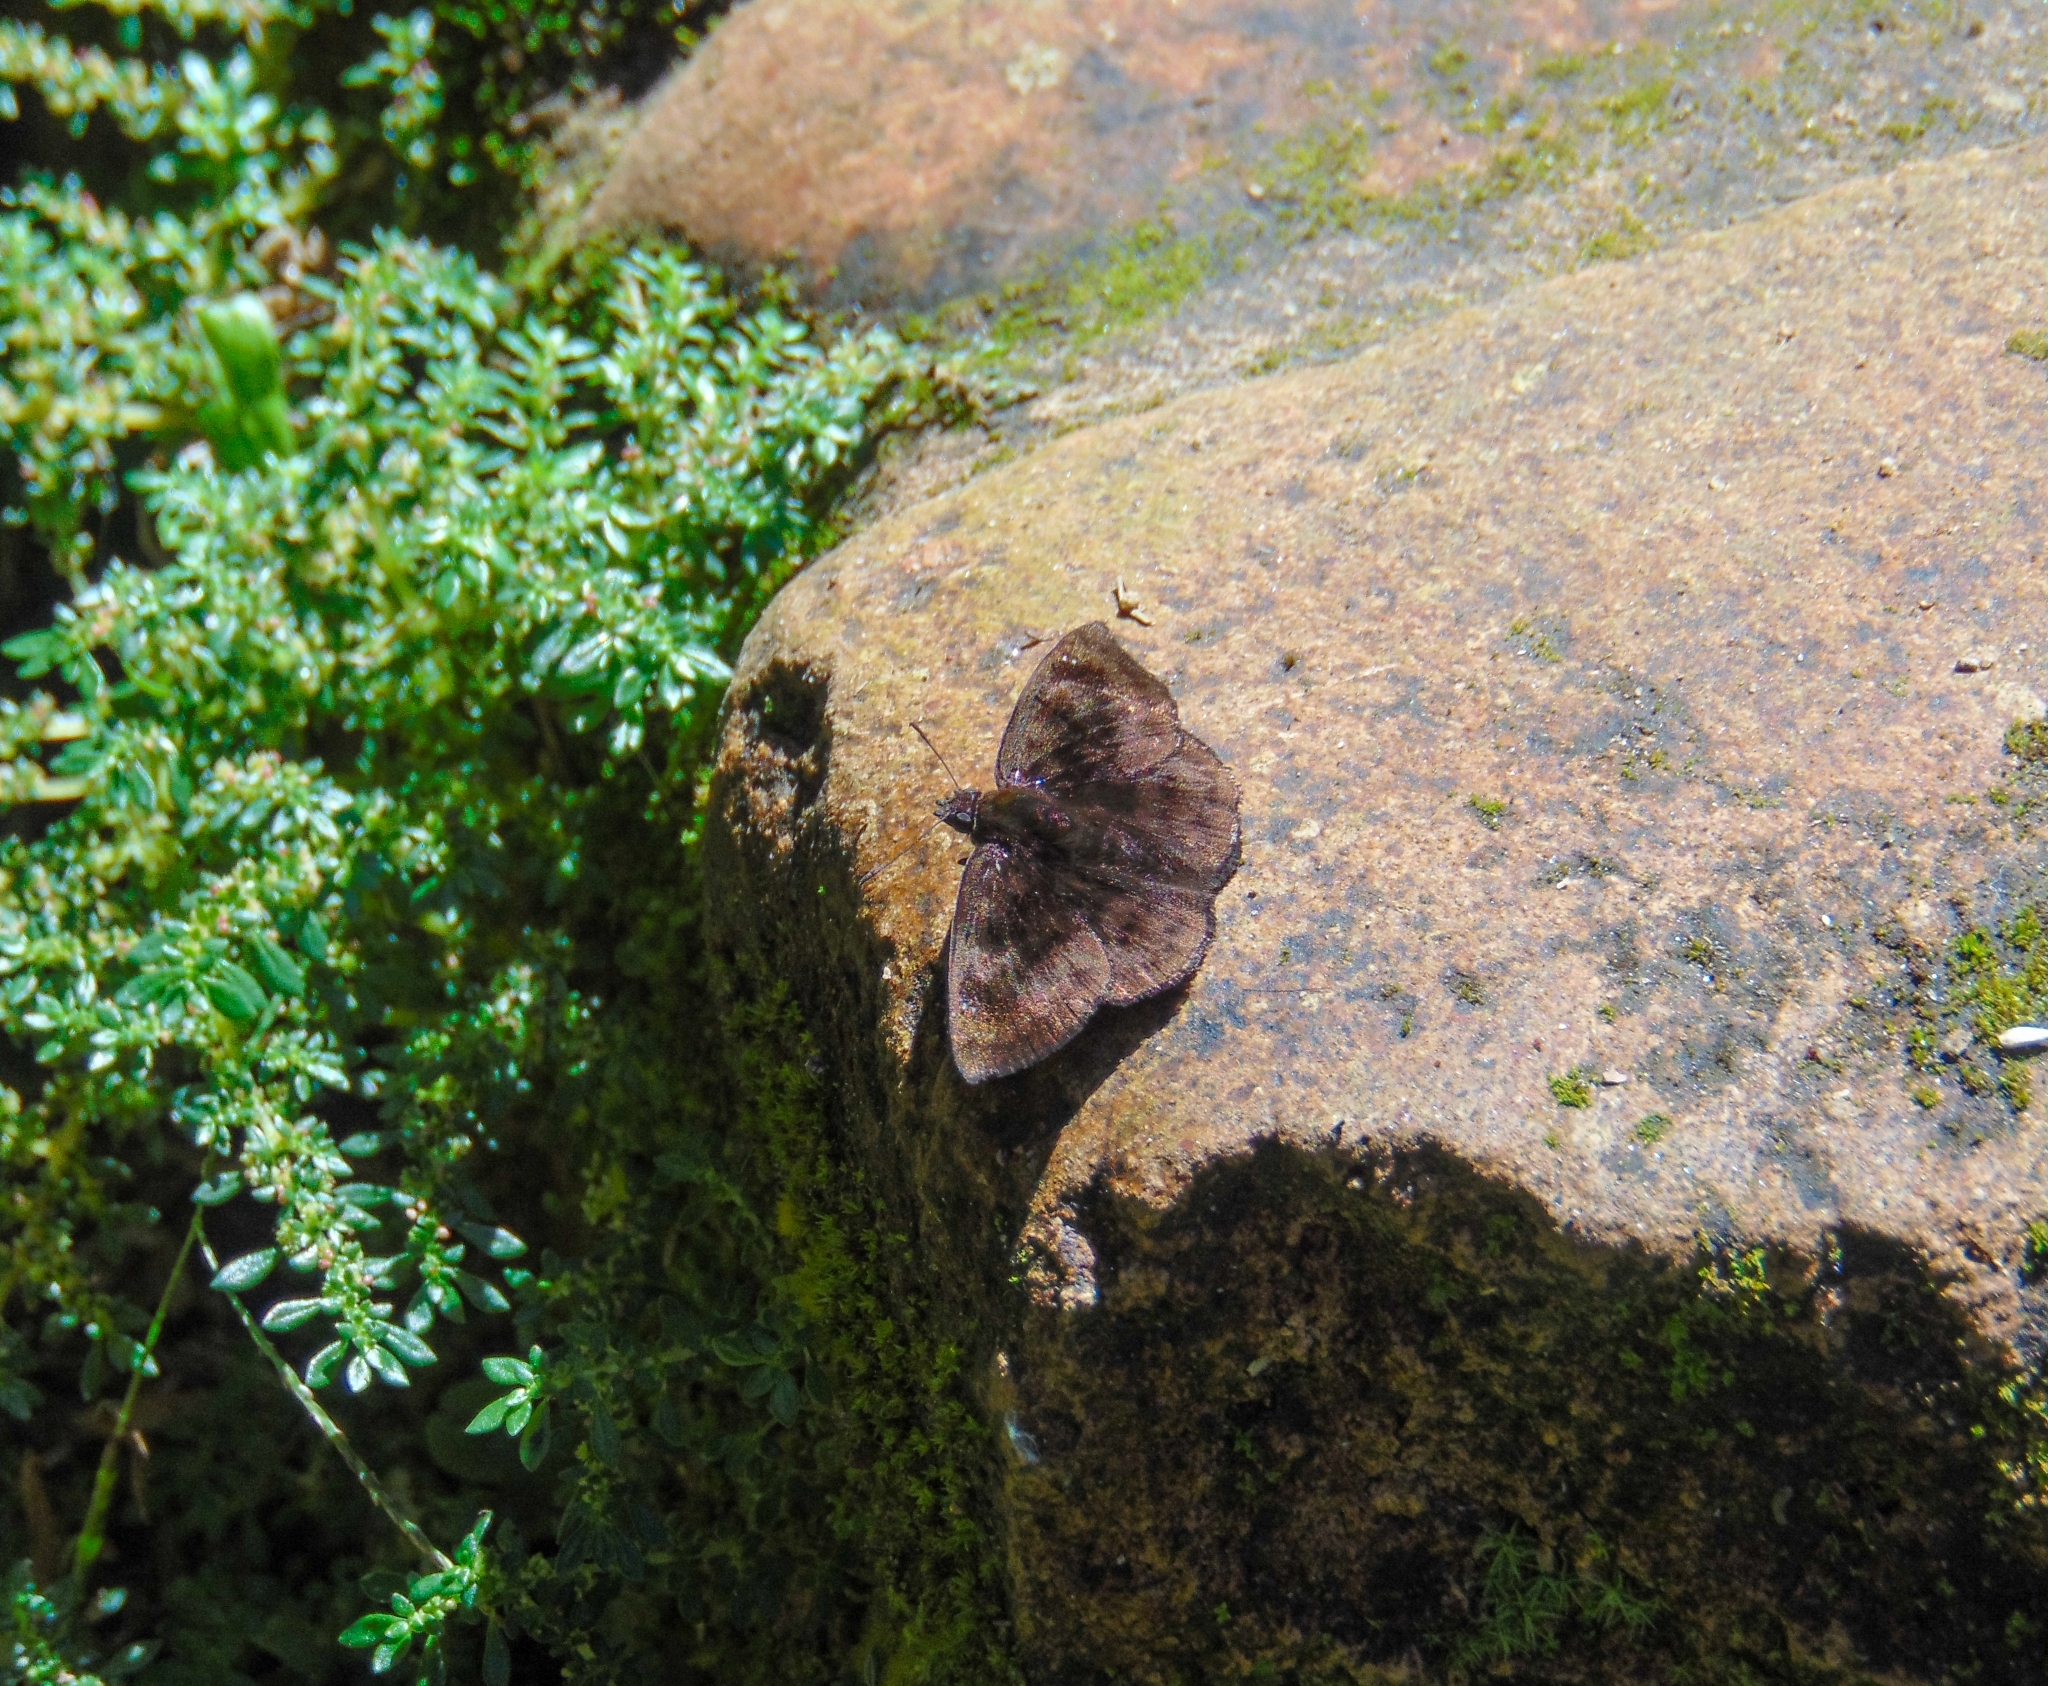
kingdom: Animalia
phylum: Arthropoda
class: Insecta
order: Lepidoptera
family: Hesperiidae
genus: Nisoniades
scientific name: Nisoniades castolus
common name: Castolus tufted-skipper
